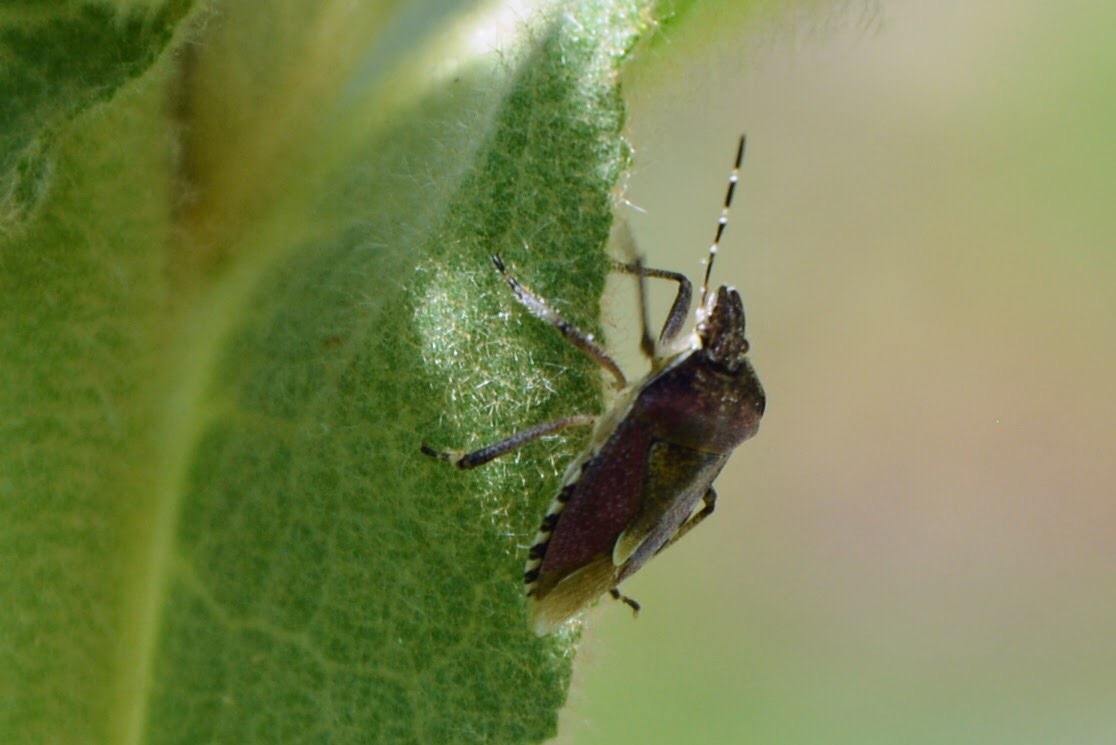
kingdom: Animalia
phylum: Arthropoda
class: Insecta
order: Hemiptera
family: Pentatomidae
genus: Dolycoris
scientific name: Dolycoris baccarum
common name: Sloe bug
